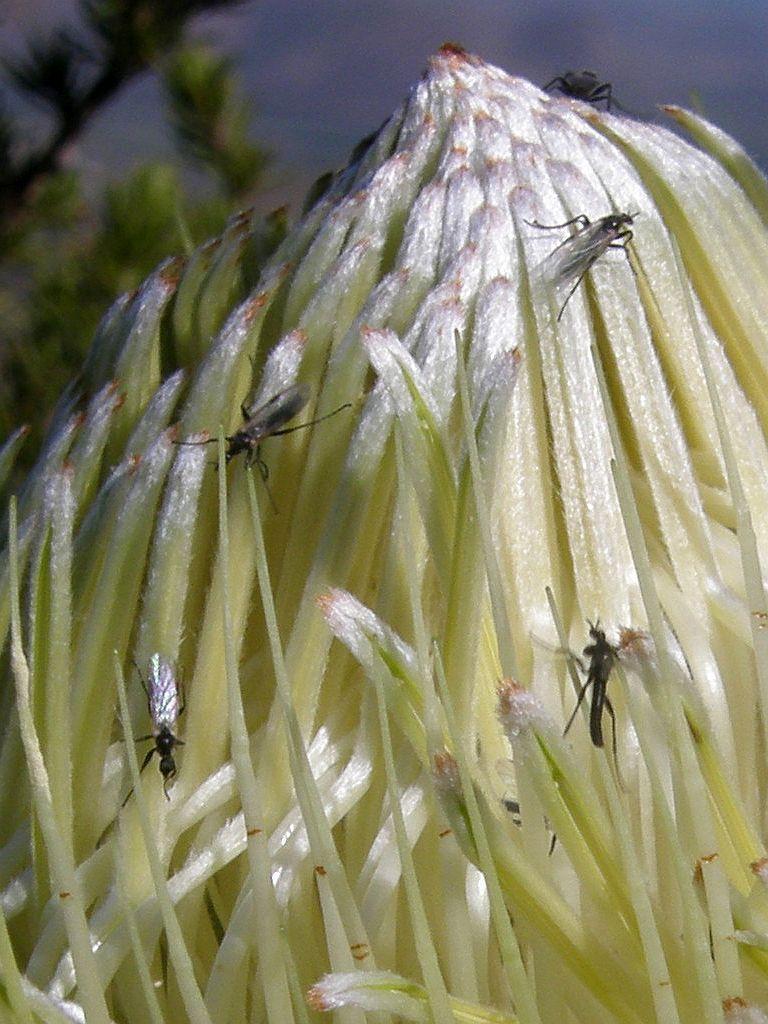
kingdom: Plantae
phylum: Tracheophyta
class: Magnoliopsida
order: Proteales
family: Proteaceae
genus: Protea
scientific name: Protea nitida
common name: Tree protea
